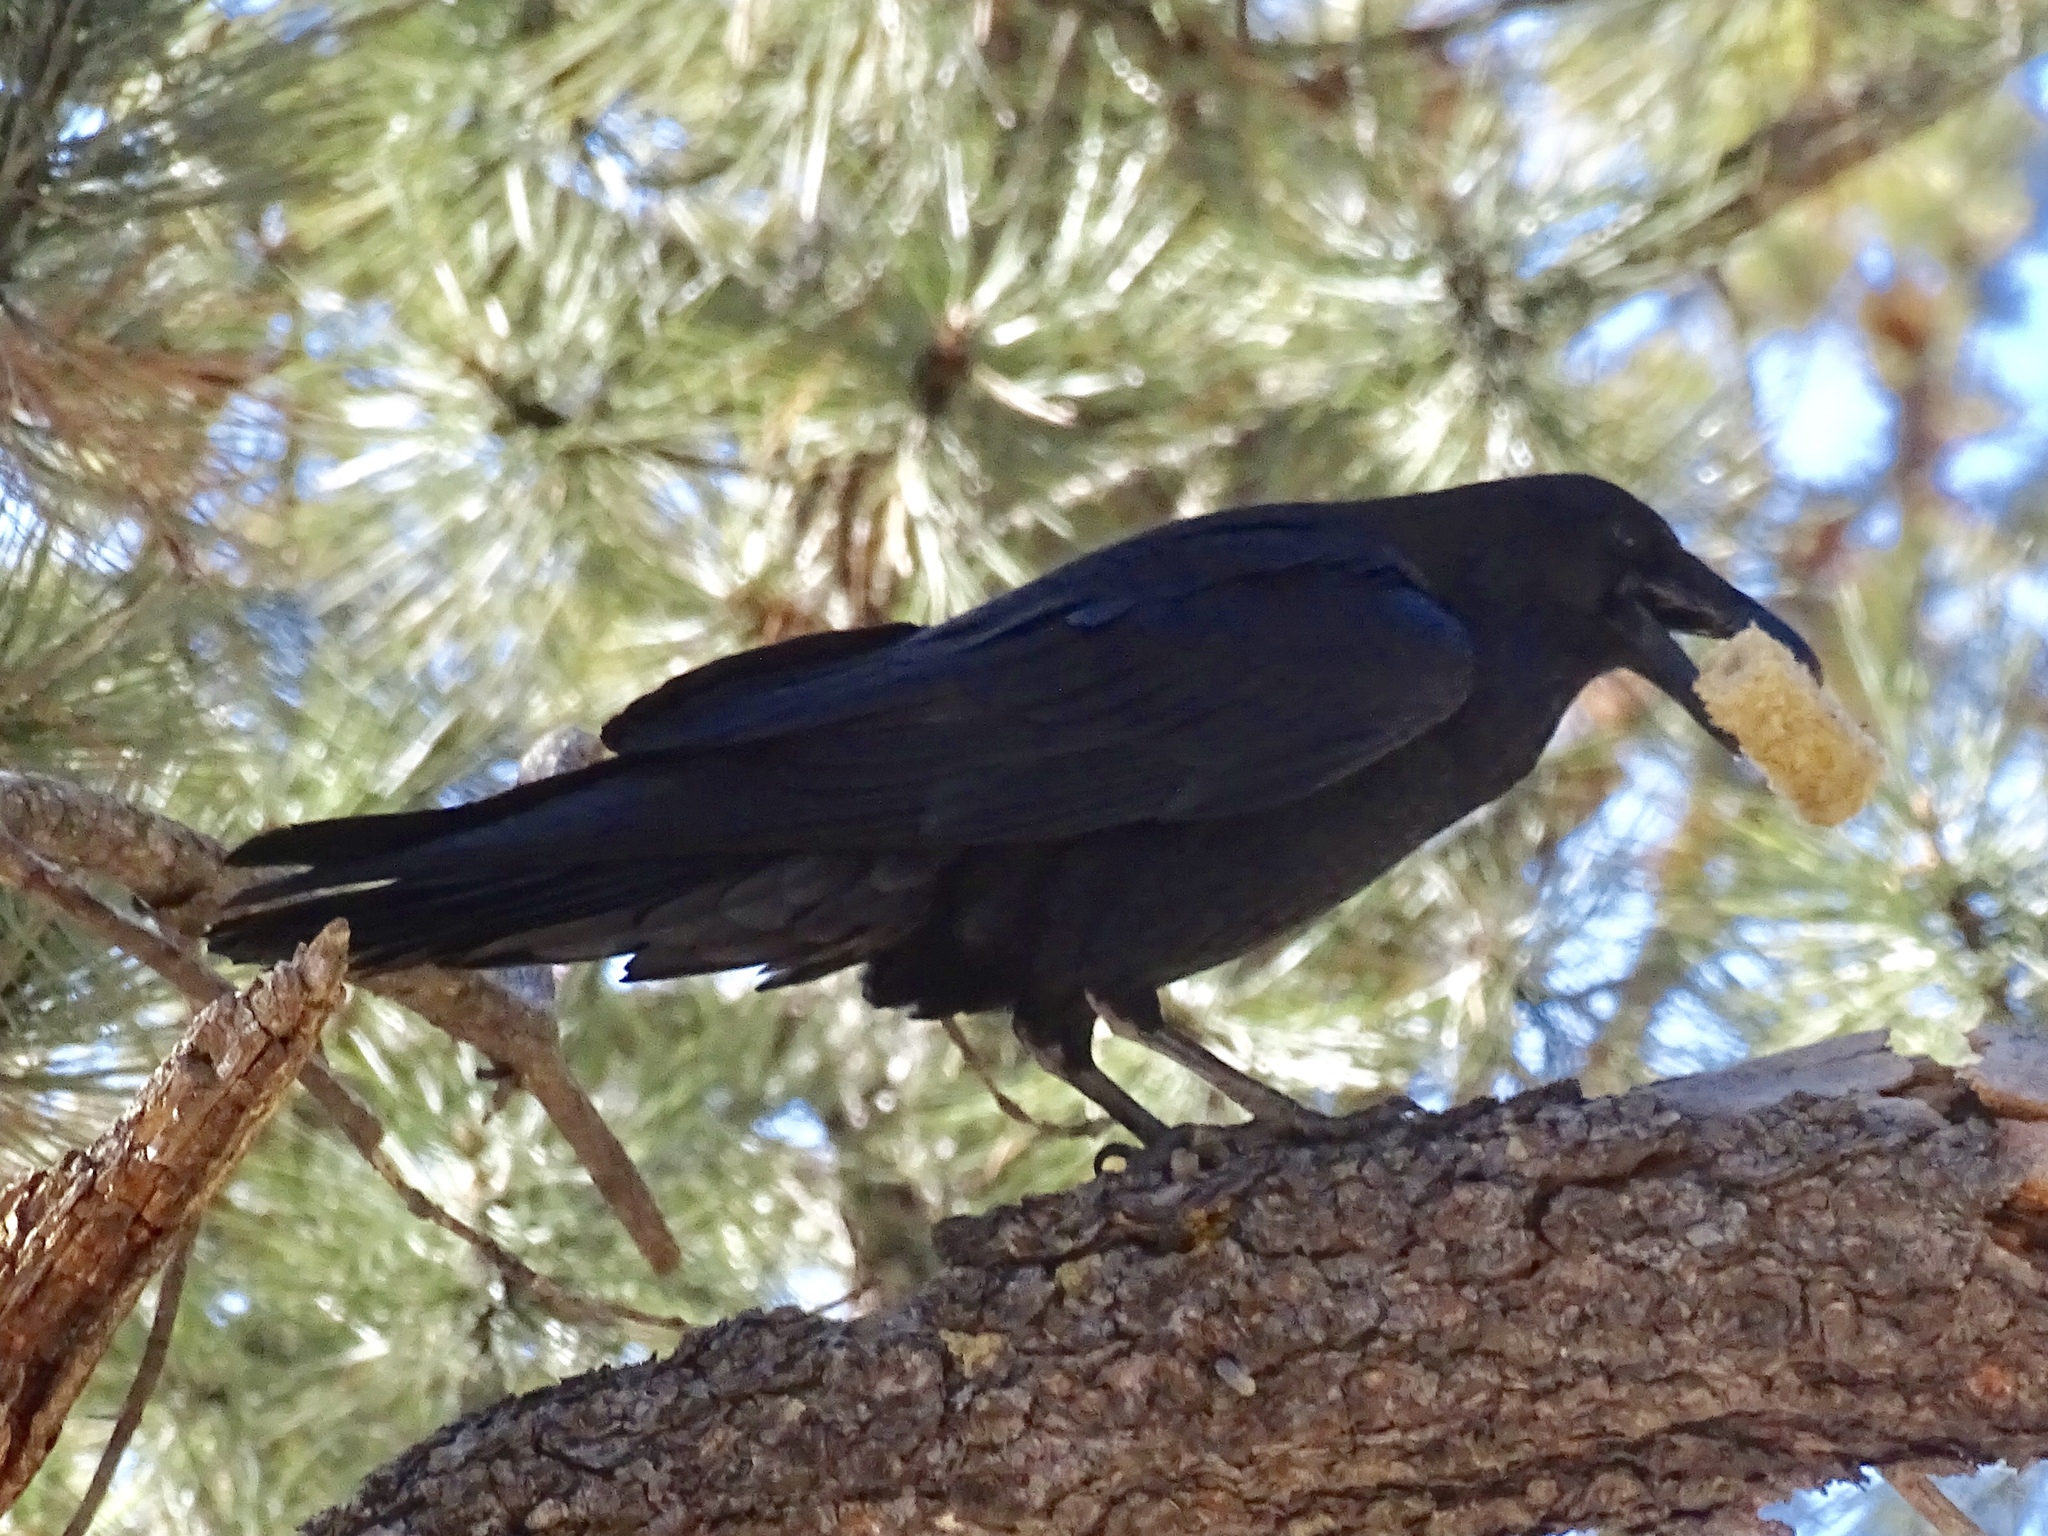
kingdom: Animalia
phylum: Chordata
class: Aves
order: Passeriformes
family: Corvidae
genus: Corvus
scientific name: Corvus corax
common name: Common raven
